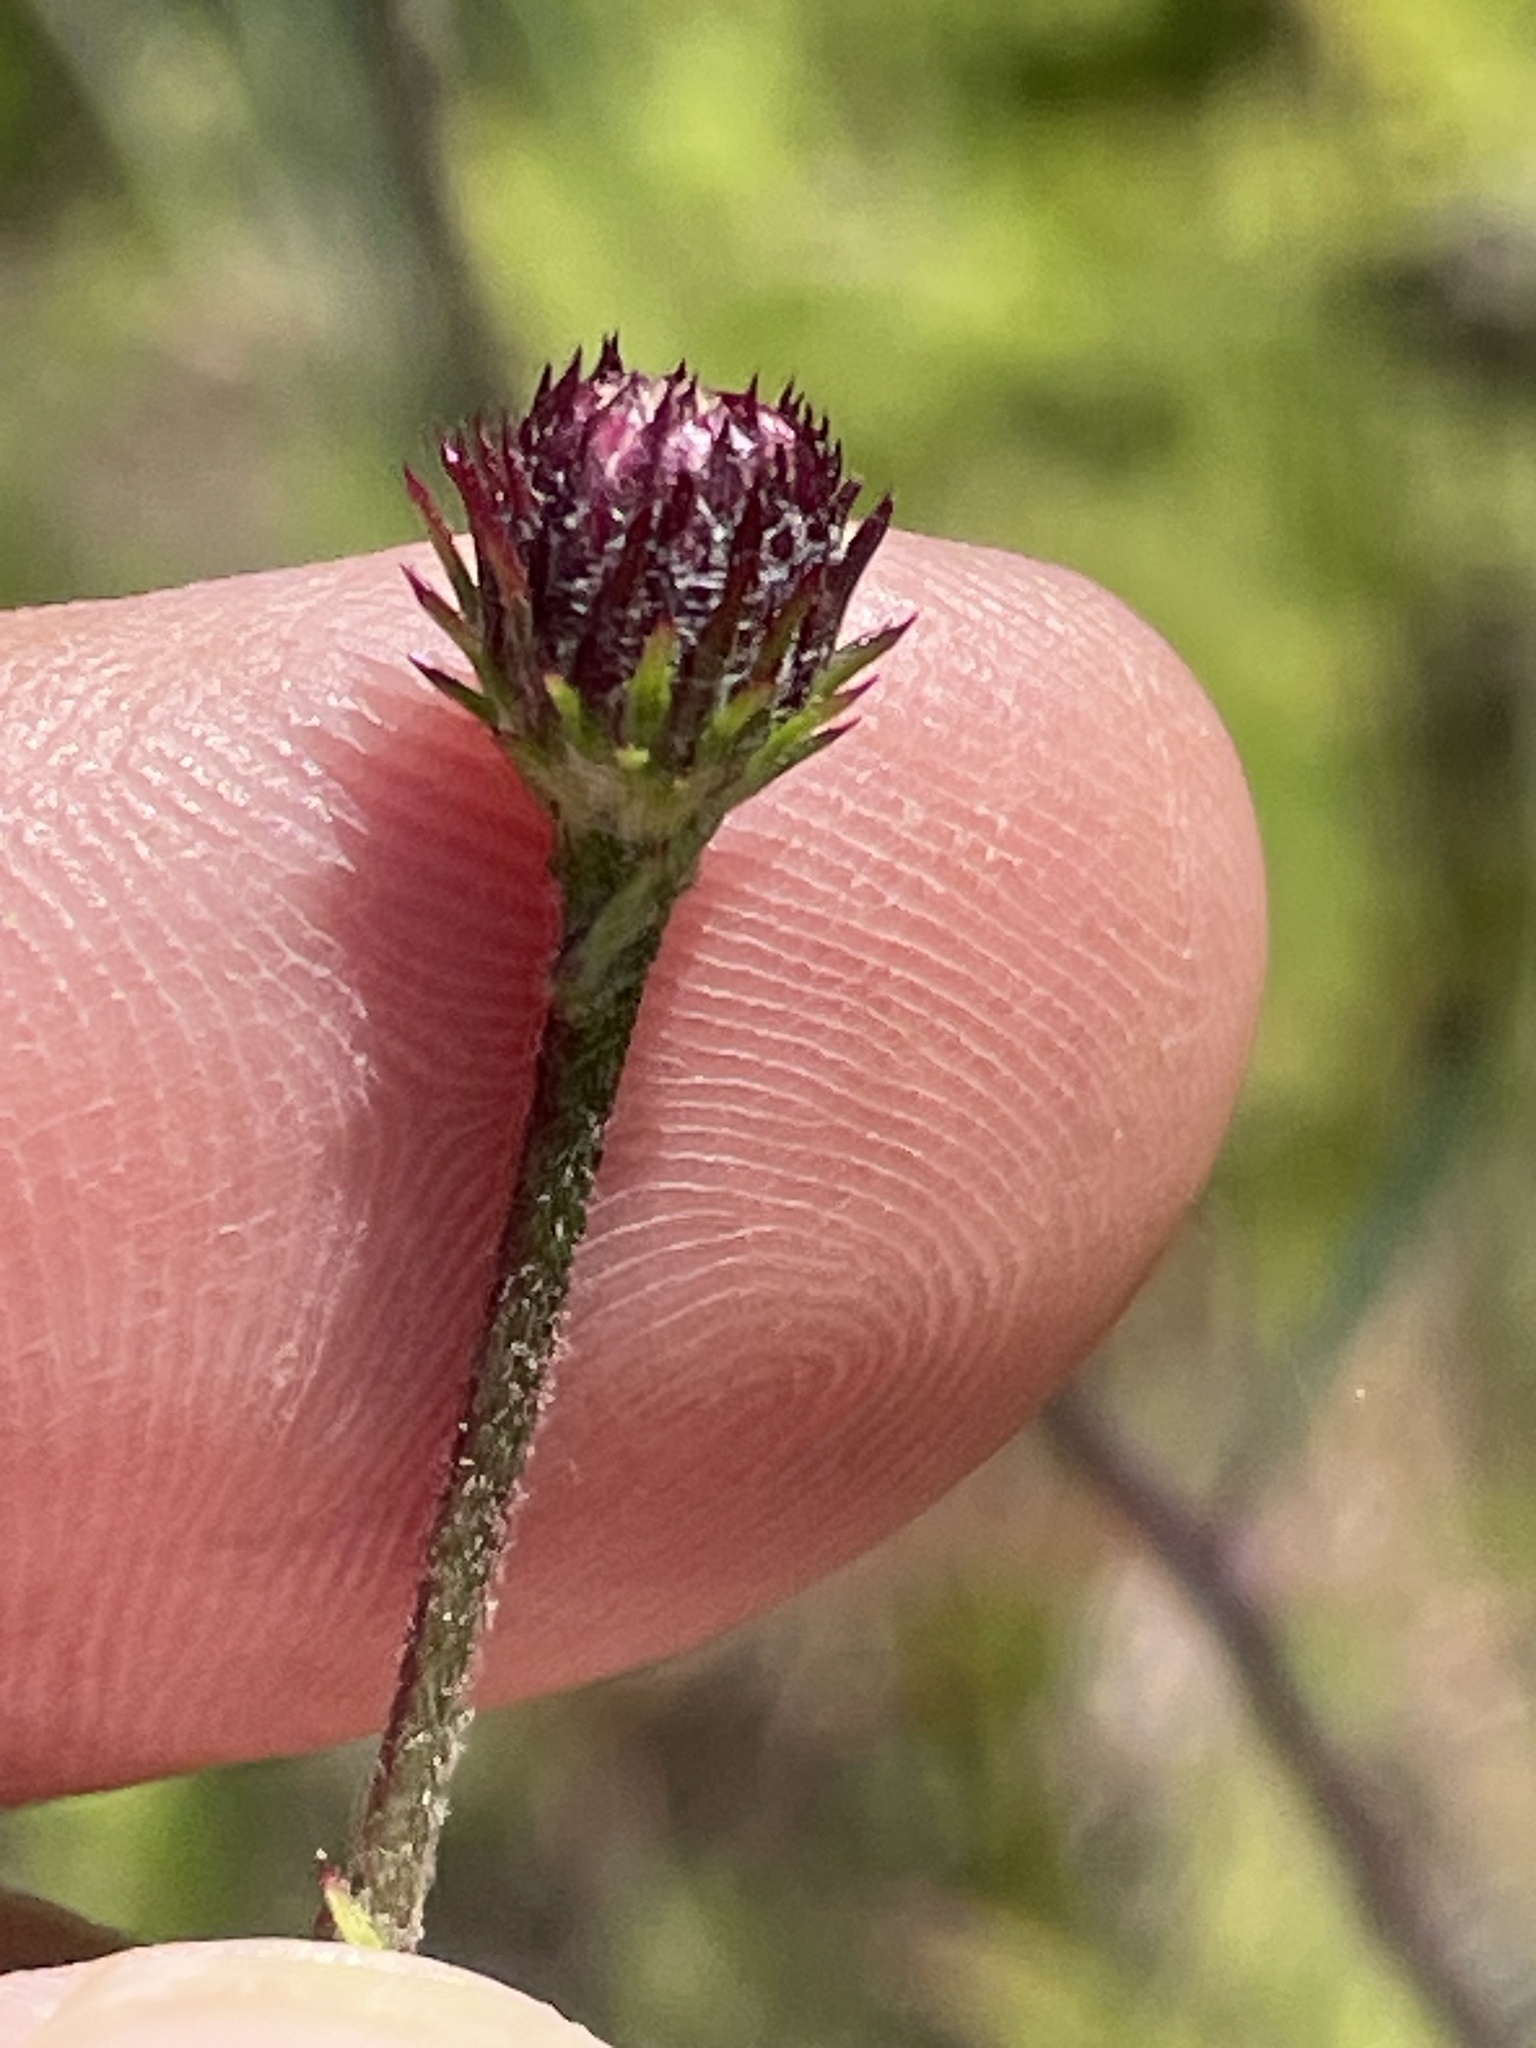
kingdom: Plantae
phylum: Tracheophyta
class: Magnoliopsida
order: Asterales
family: Asteraceae
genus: Vernonia
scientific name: Vernonia acaulis
